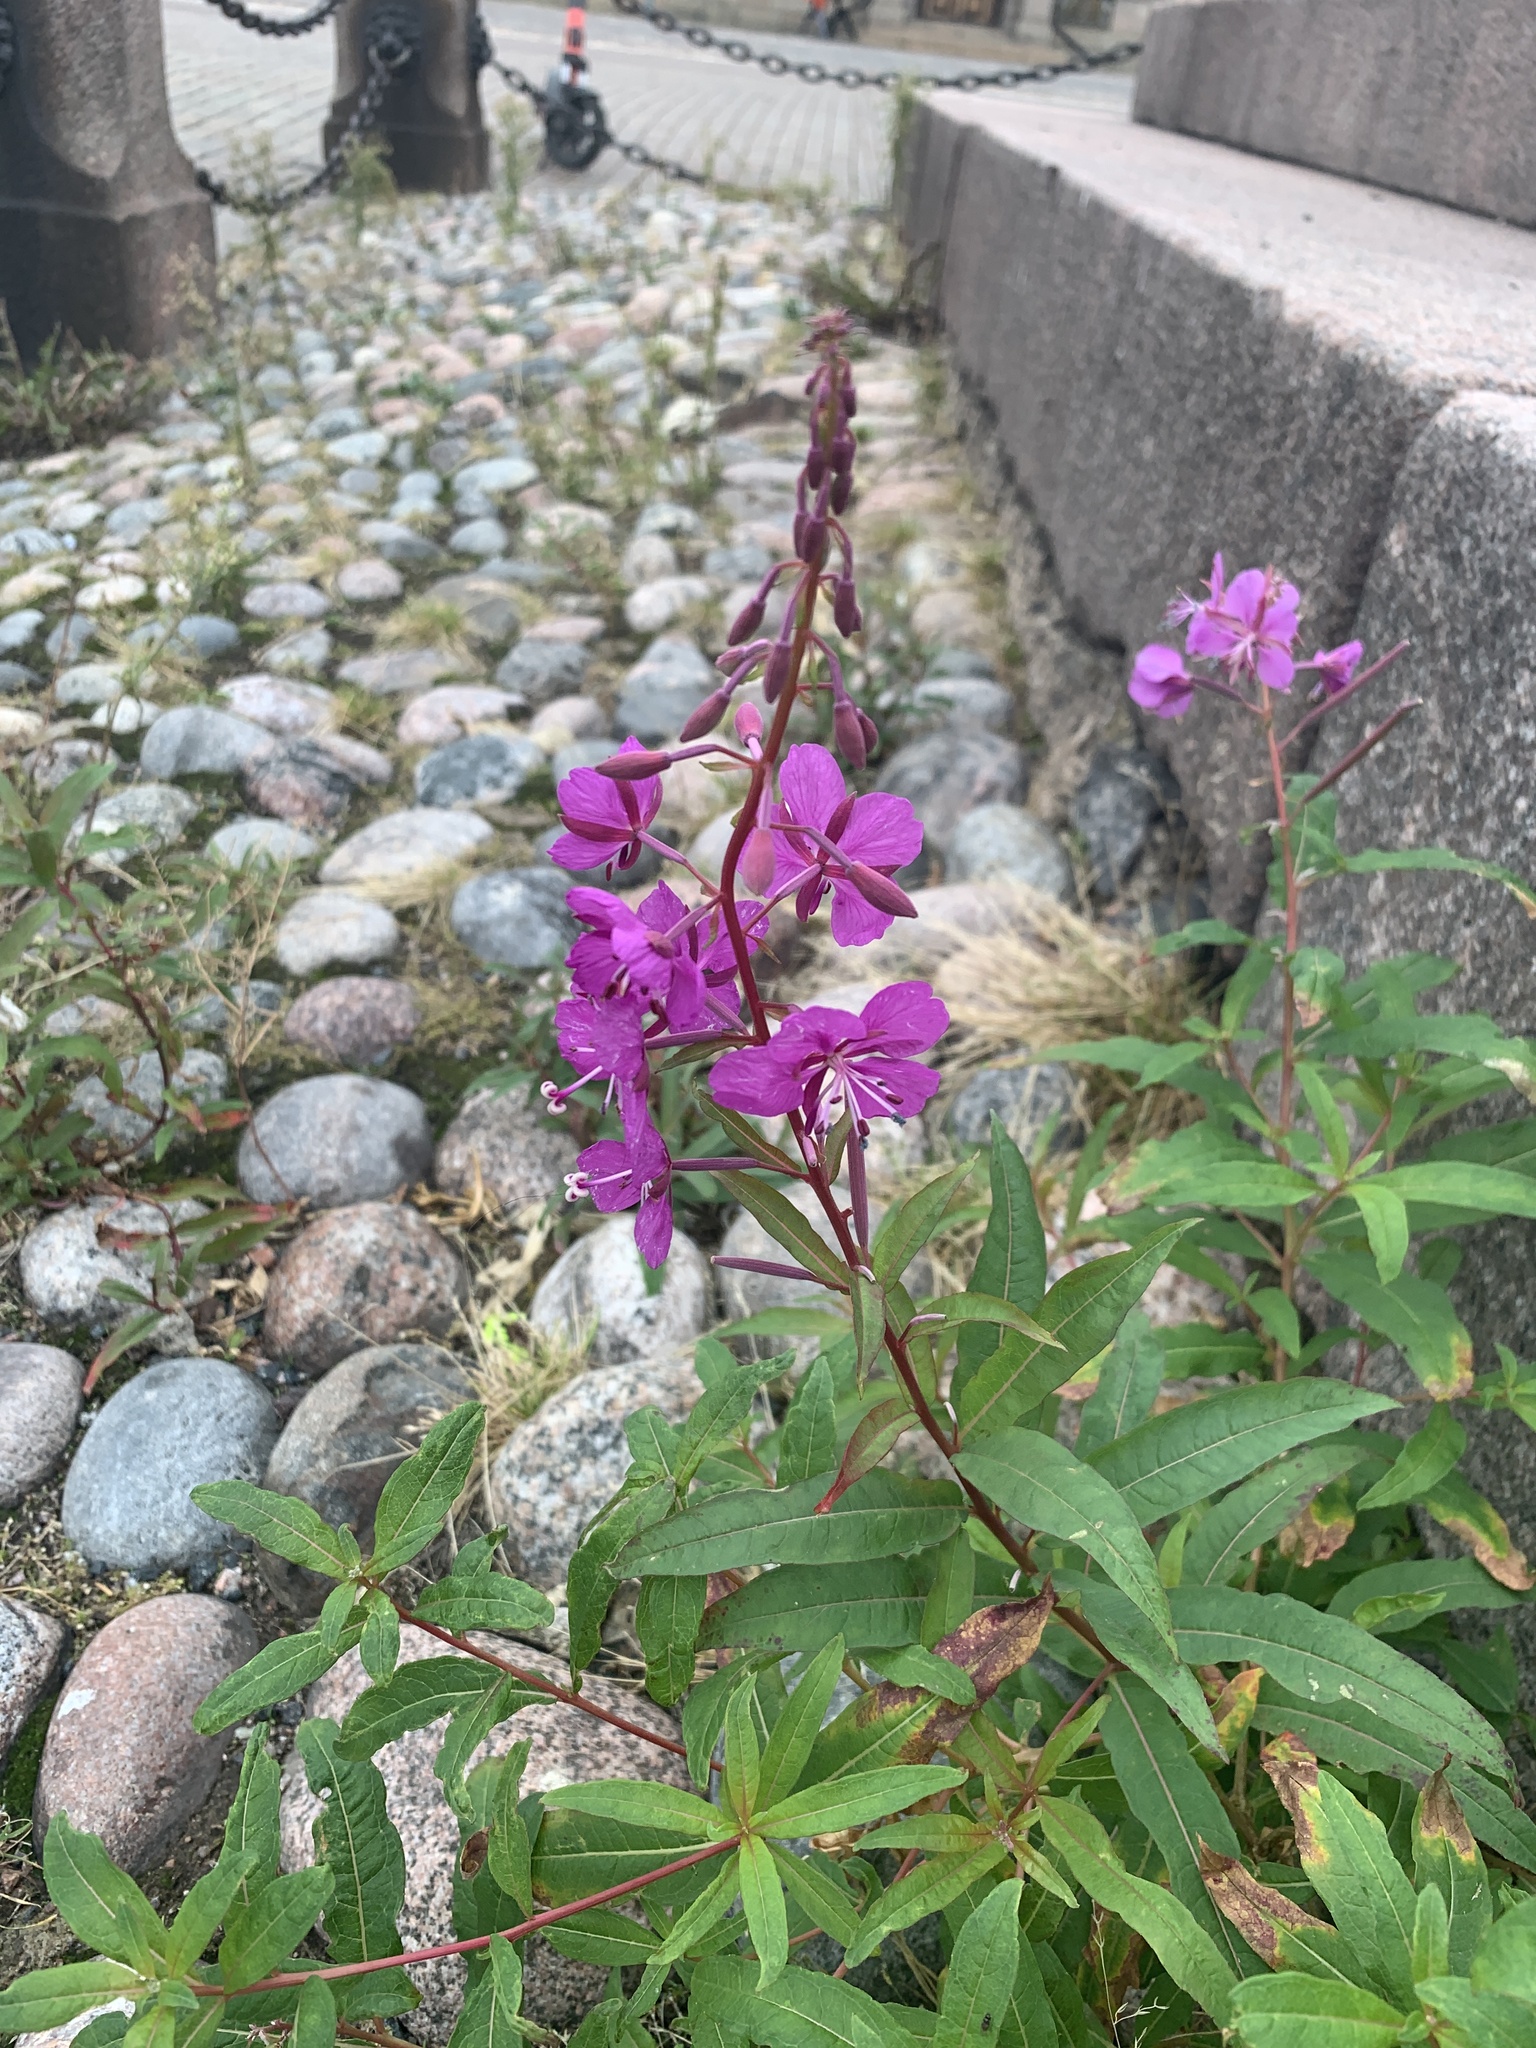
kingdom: Plantae
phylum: Tracheophyta
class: Magnoliopsida
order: Myrtales
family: Onagraceae
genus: Chamaenerion
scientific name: Chamaenerion angustifolium
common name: Fireweed
